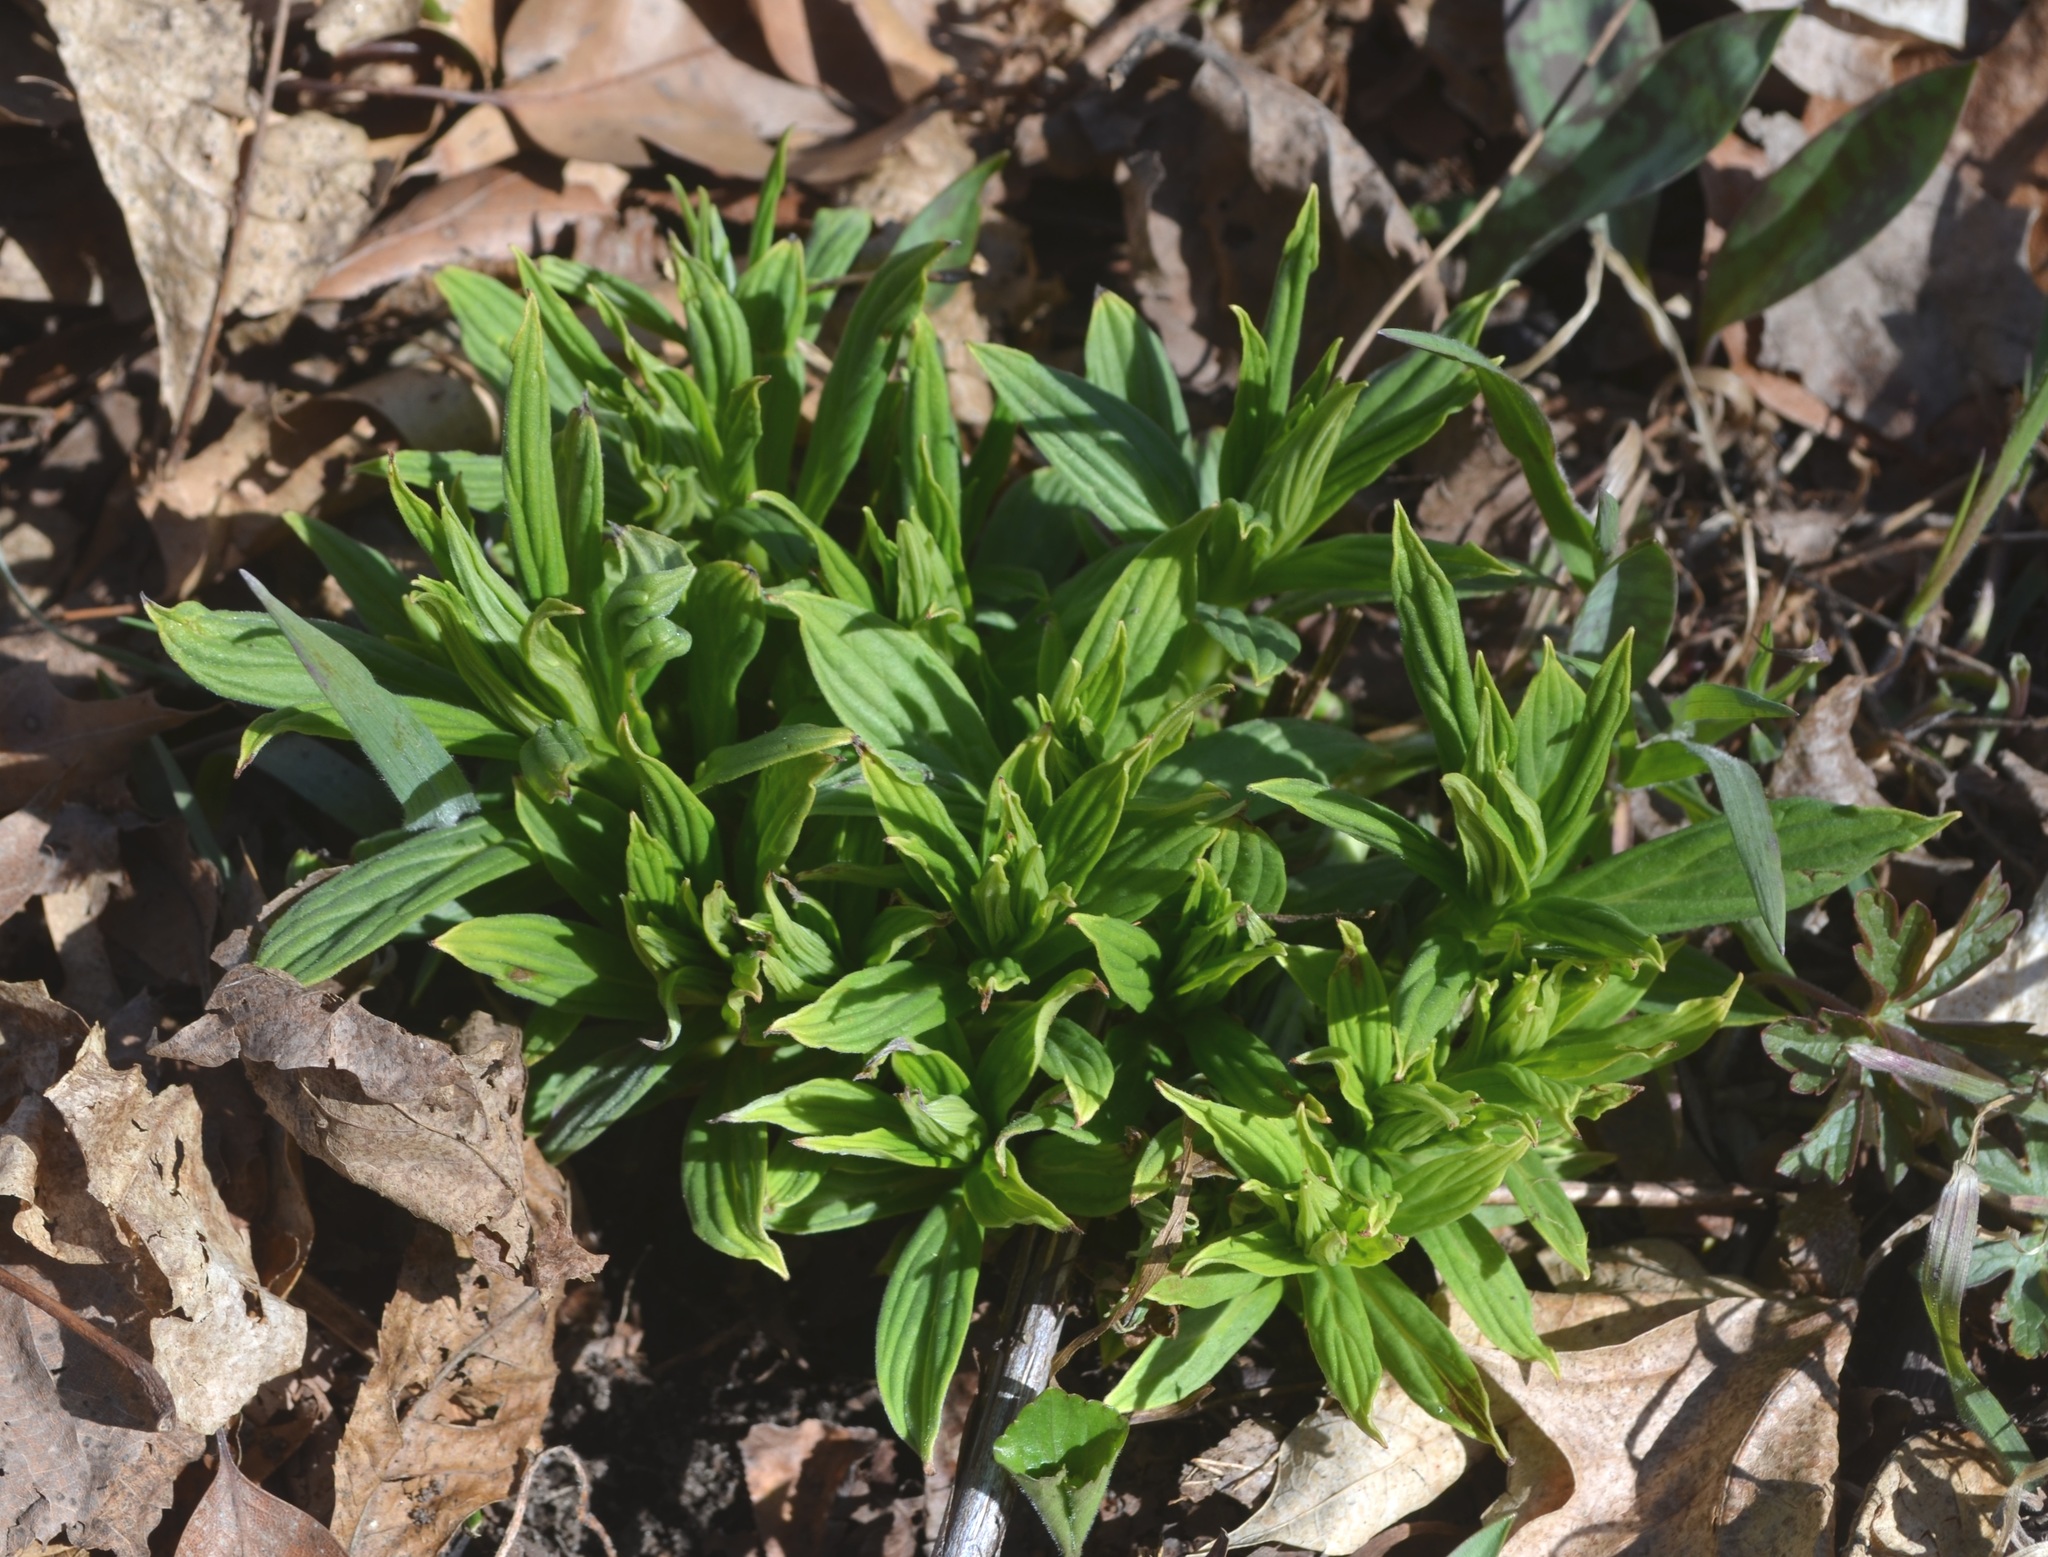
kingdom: Plantae
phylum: Tracheophyta
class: Magnoliopsida
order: Boraginales
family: Boraginaceae
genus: Lithospermum
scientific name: Lithospermum latifolium
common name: American gromwell
